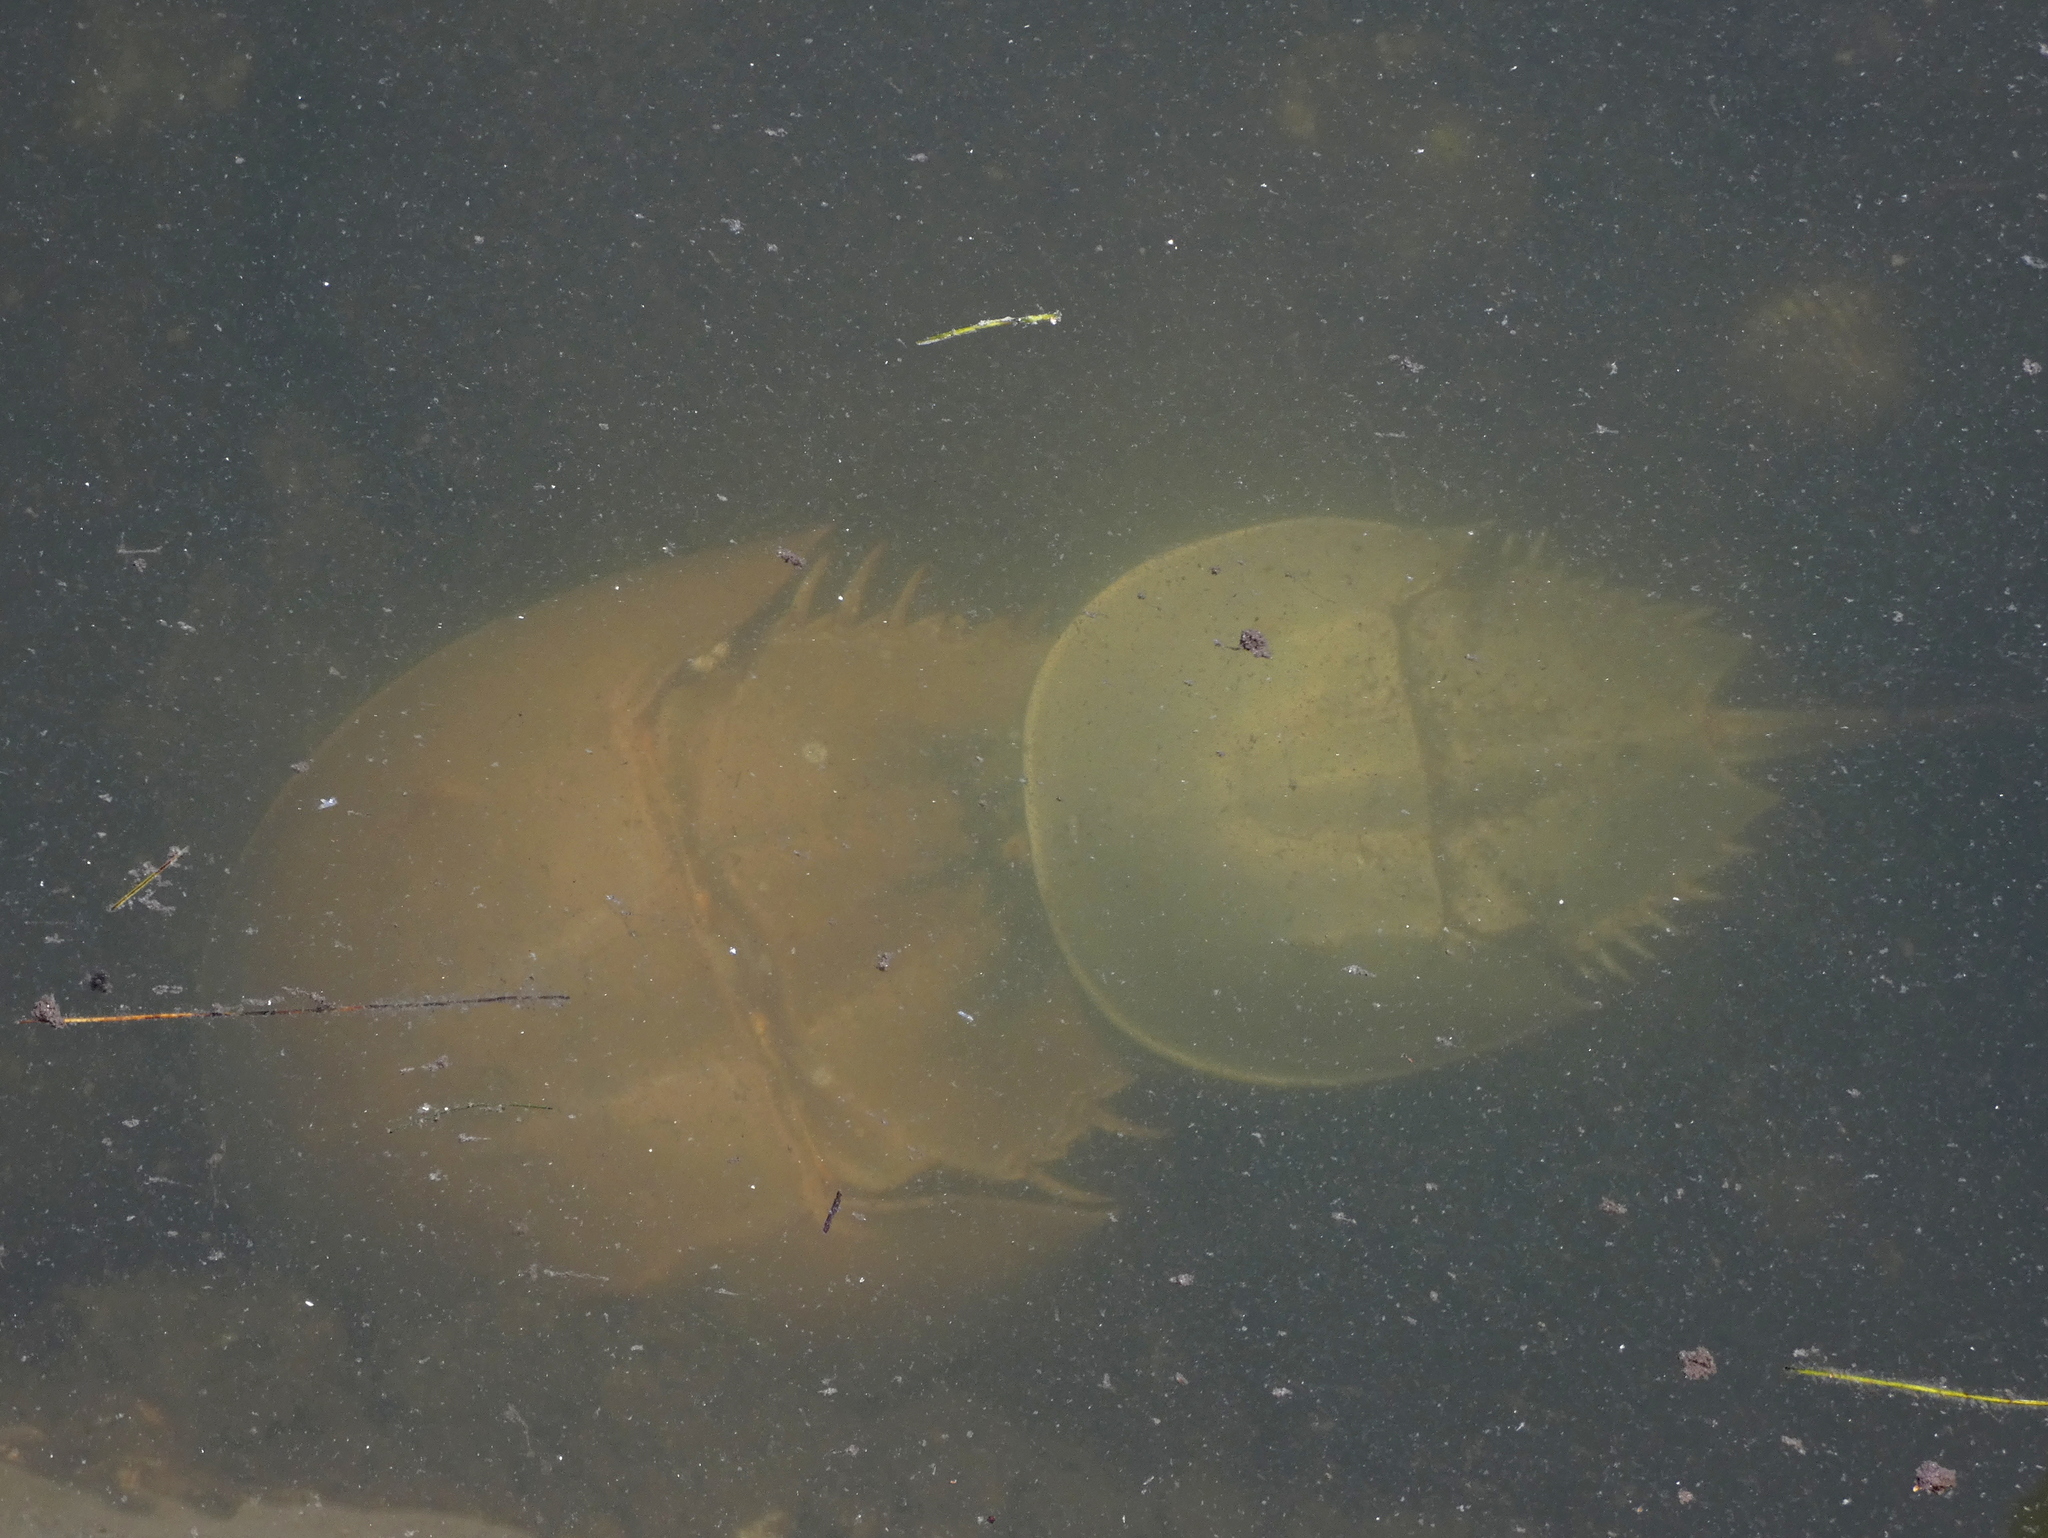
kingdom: Animalia
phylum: Arthropoda
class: Merostomata
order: Xiphosurida
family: Limulidae
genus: Limulus
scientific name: Limulus polyphemus
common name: Horseshoe crab
